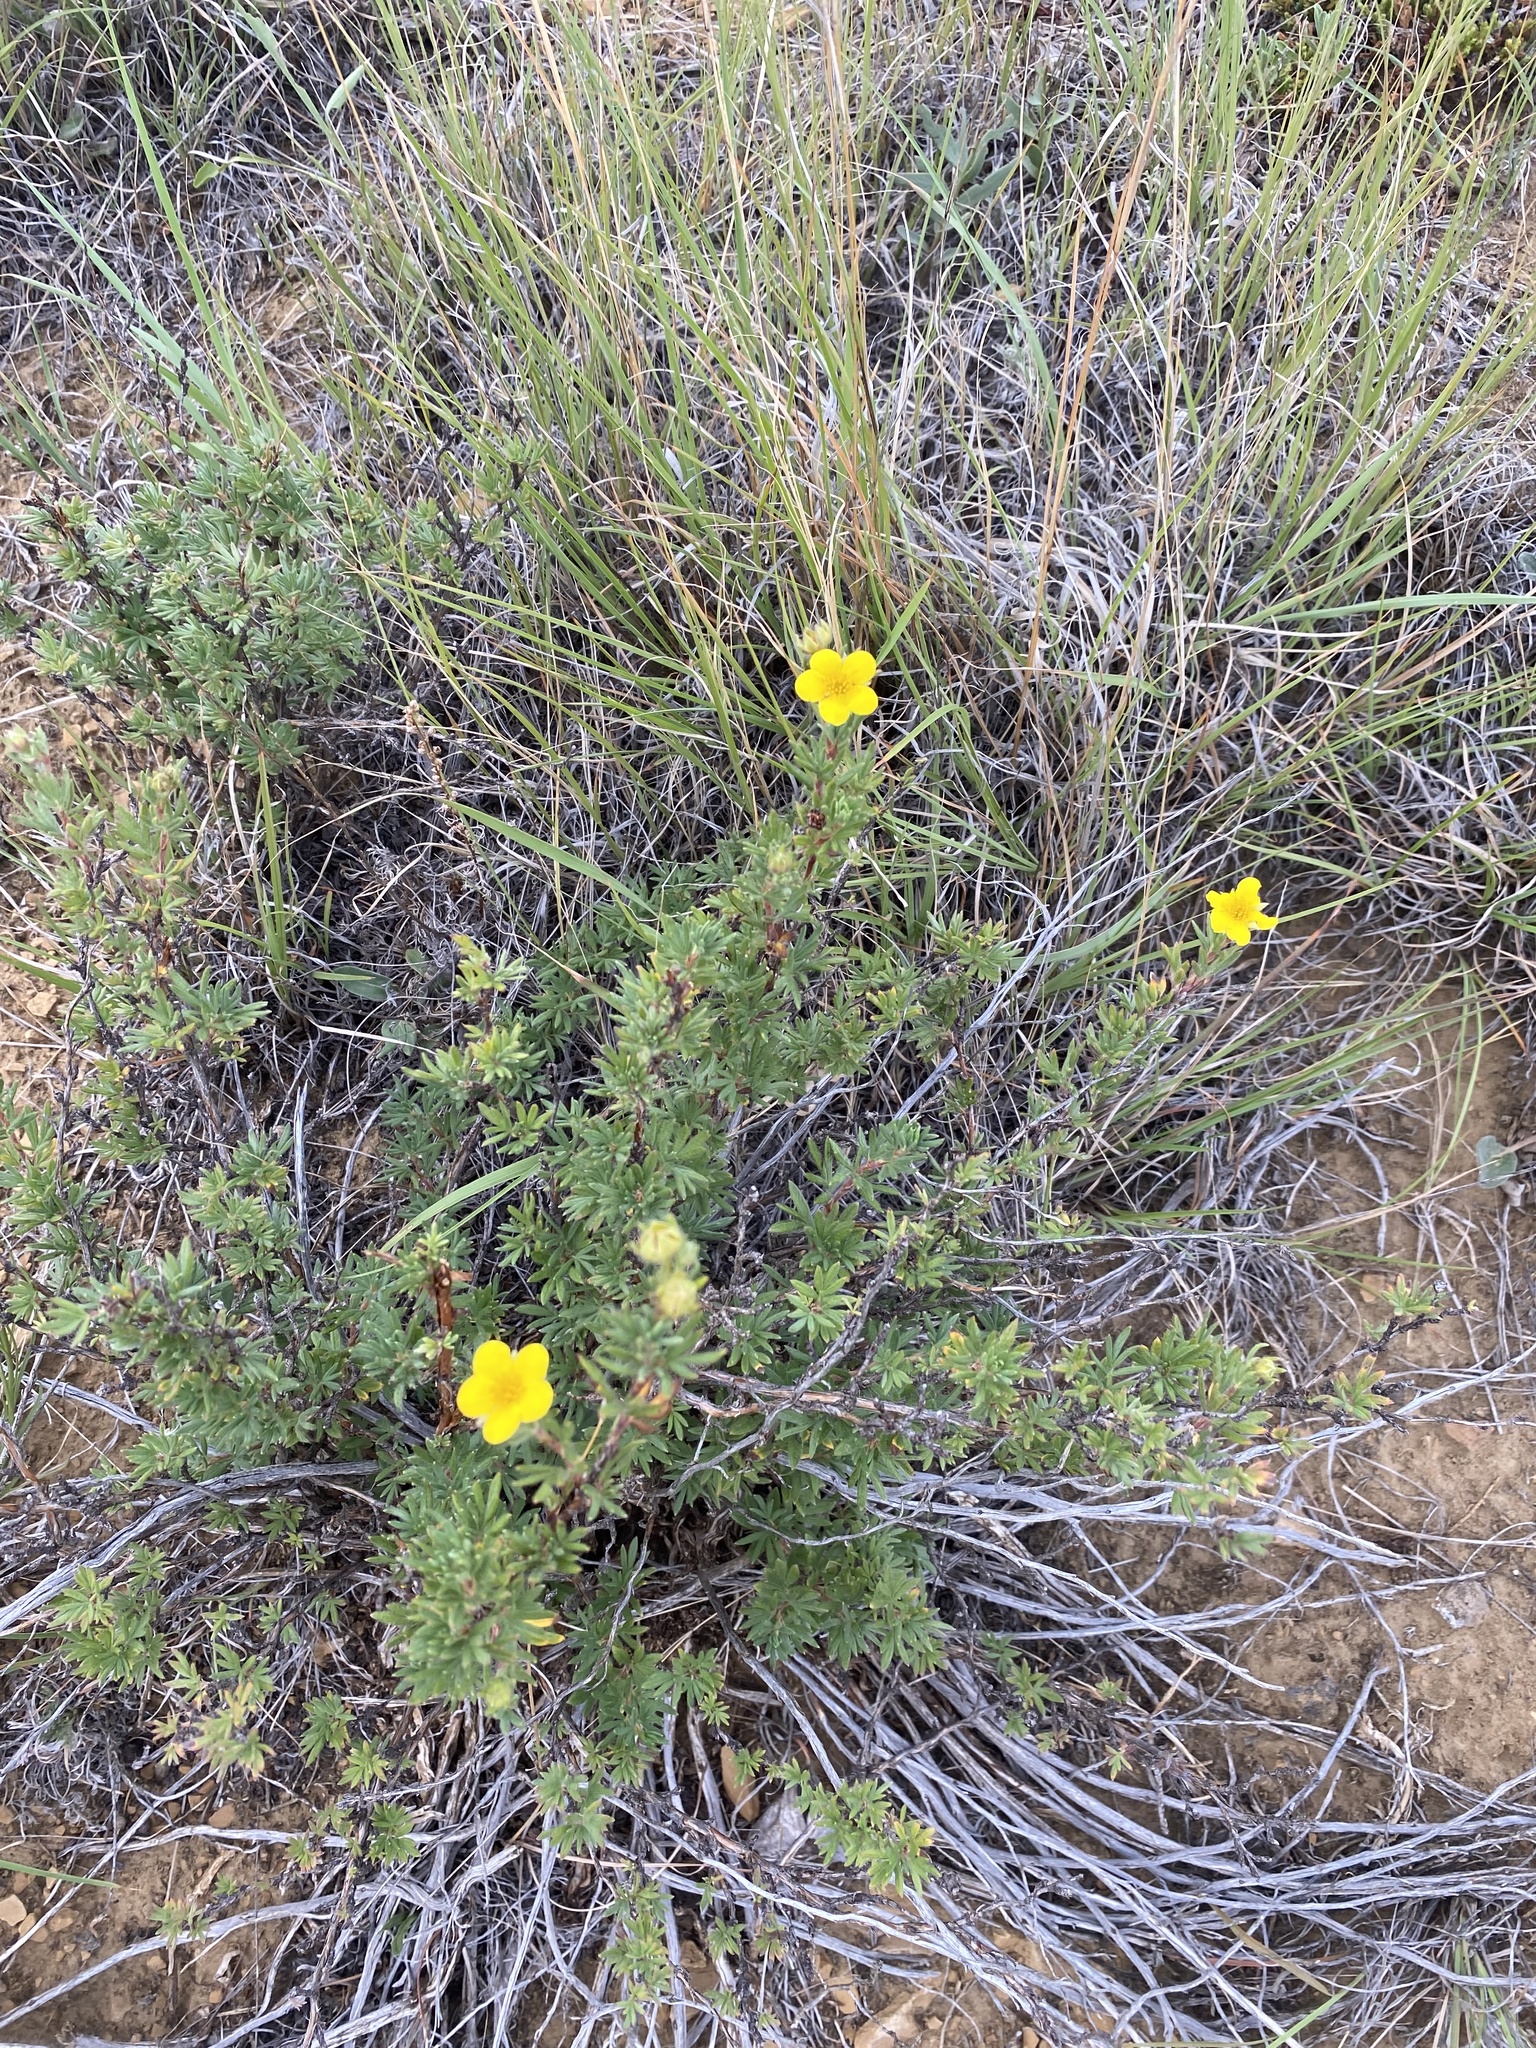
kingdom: Plantae
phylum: Tracheophyta
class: Magnoliopsida
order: Rosales
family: Rosaceae
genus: Dasiphora
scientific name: Dasiphora fruticosa
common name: Shrubby cinquefoil
